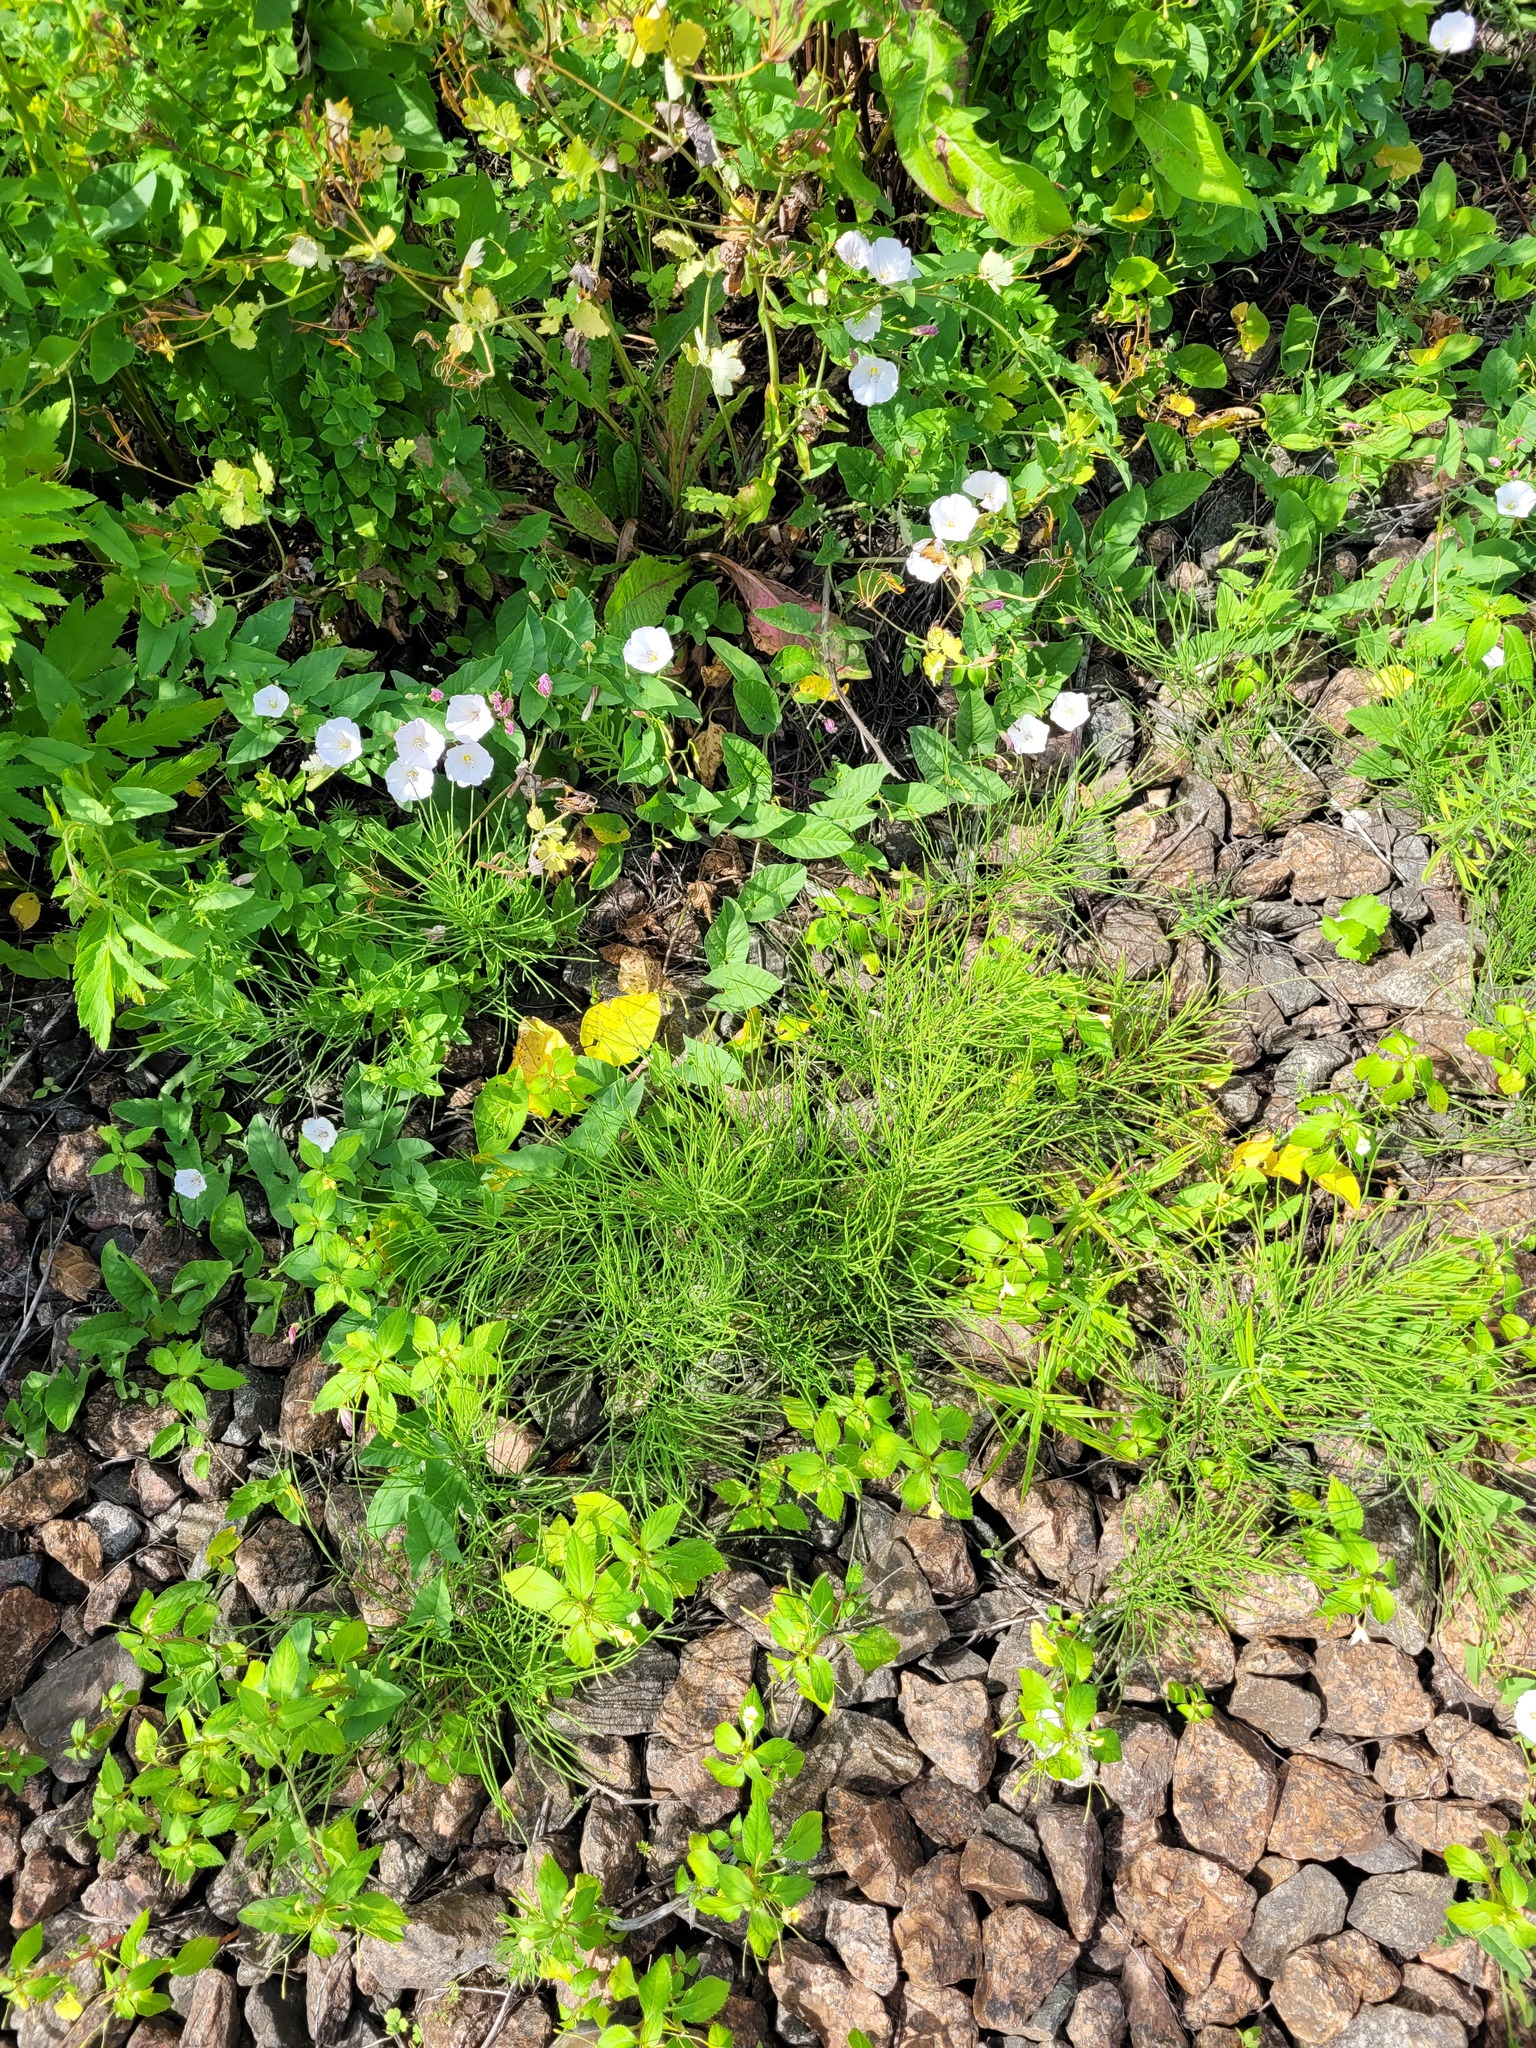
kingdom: Plantae
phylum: Tracheophyta
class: Polypodiopsida
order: Equisetales
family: Equisetaceae
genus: Equisetum
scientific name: Equisetum arvense
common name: Field horsetail
